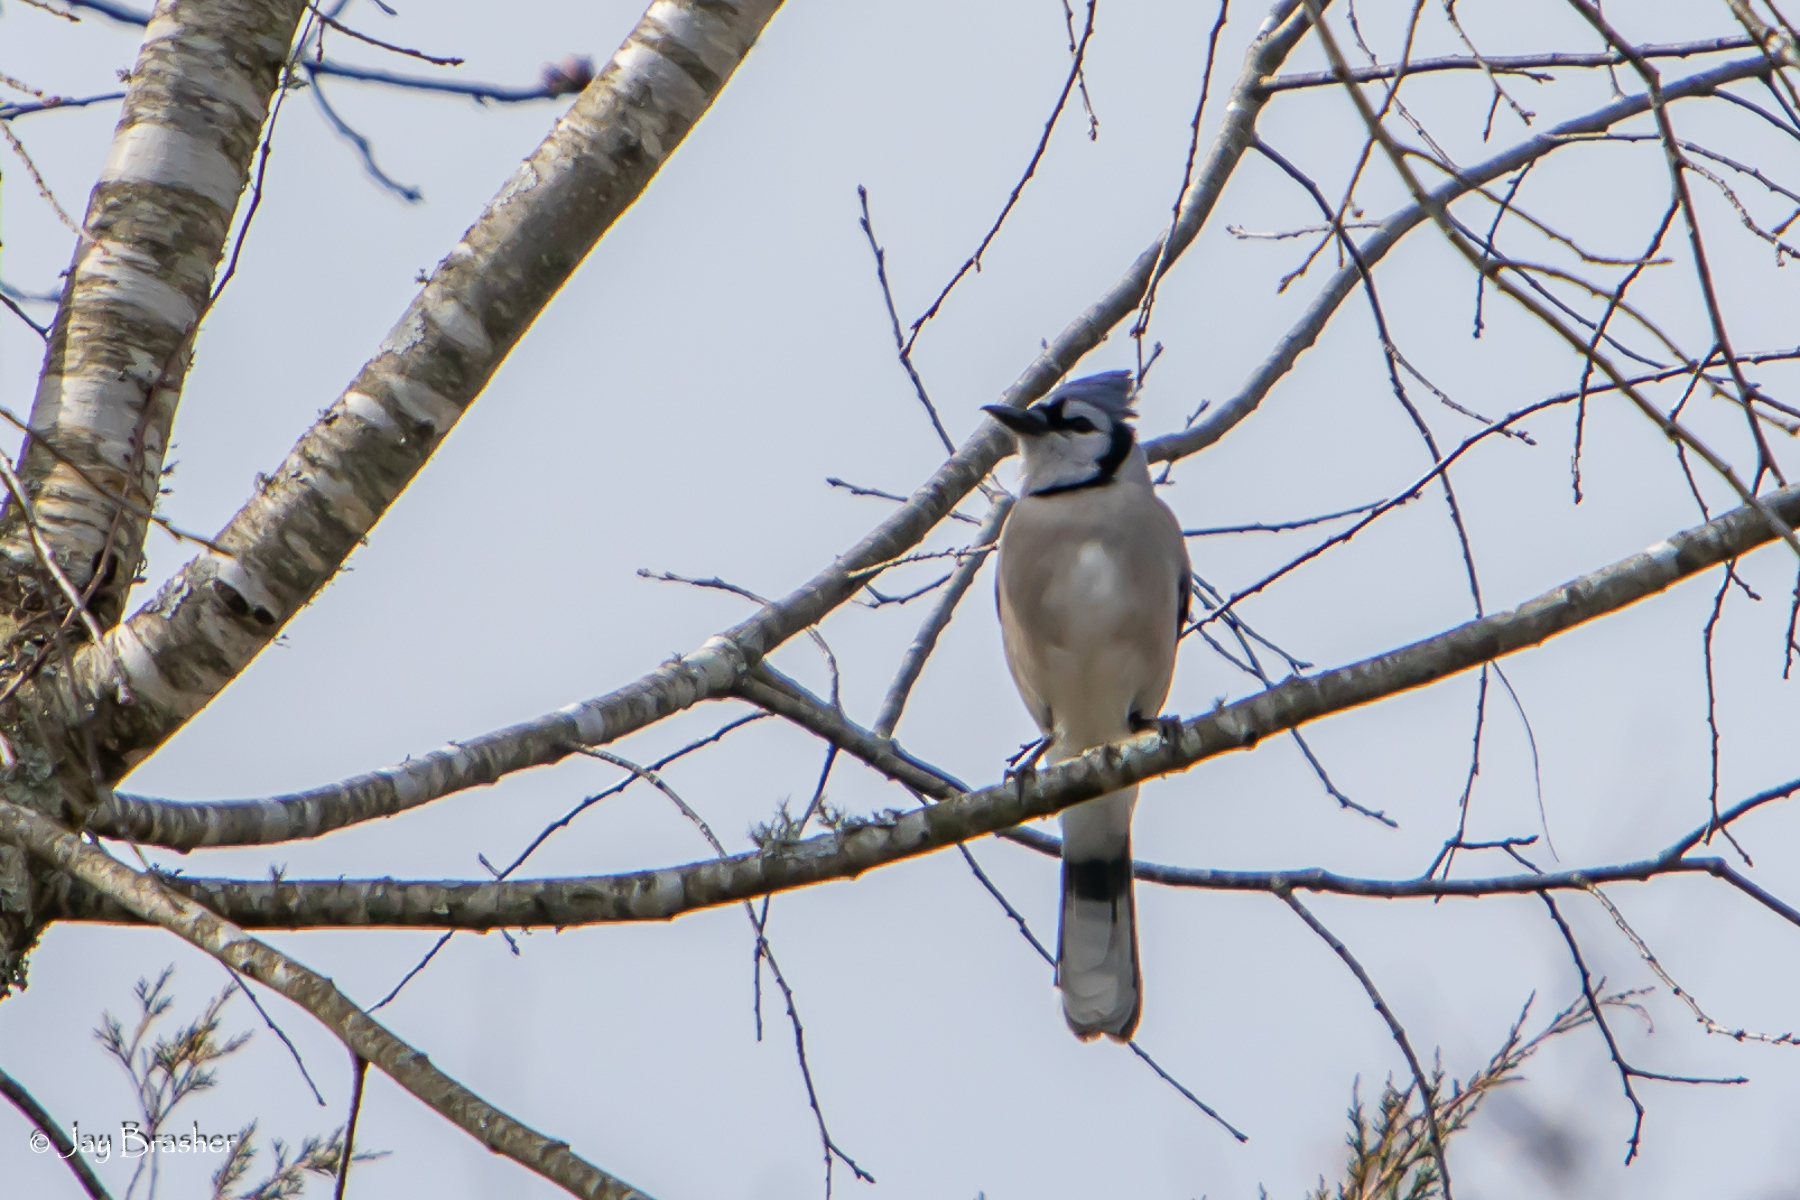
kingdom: Animalia
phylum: Chordata
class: Aves
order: Passeriformes
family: Corvidae
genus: Cyanocitta
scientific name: Cyanocitta cristata
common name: Blue jay
